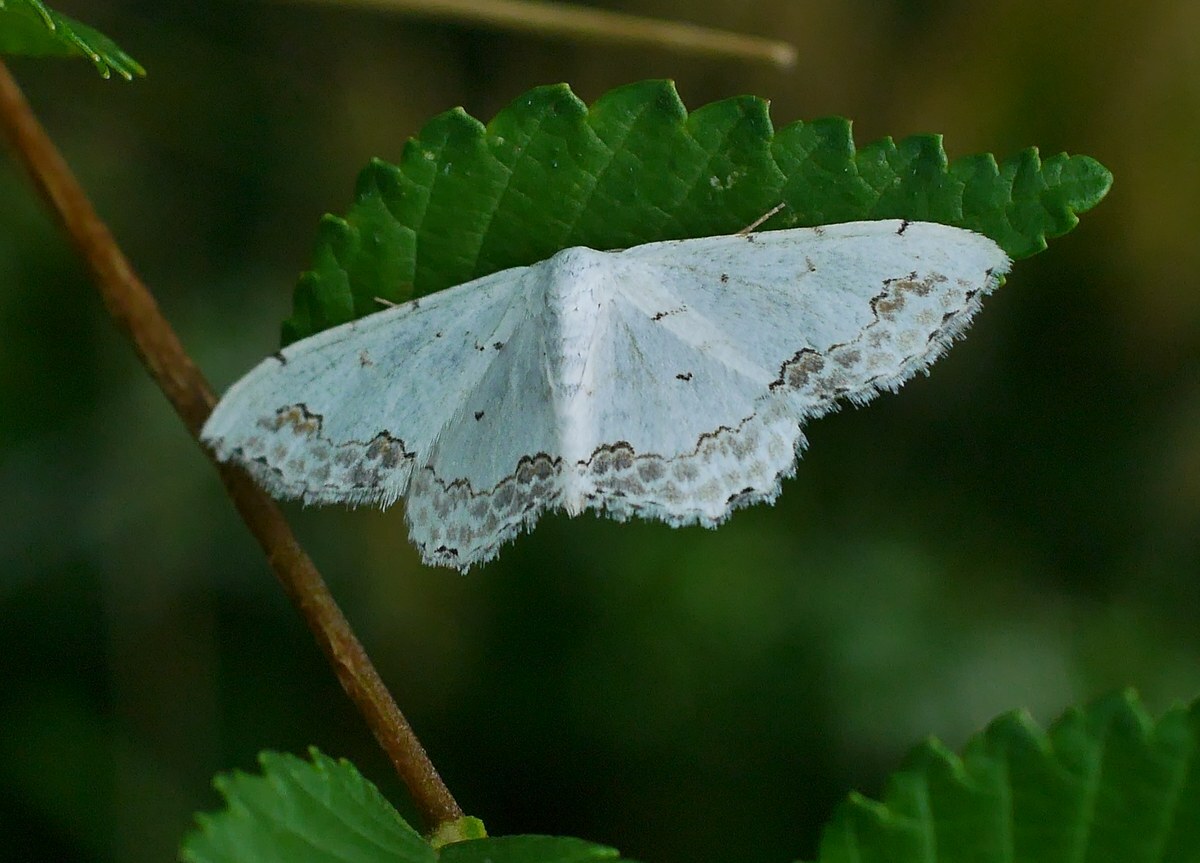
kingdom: Animalia
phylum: Arthropoda
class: Insecta
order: Lepidoptera
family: Geometridae
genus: Scopula
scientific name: Scopula ornata
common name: Lace border
